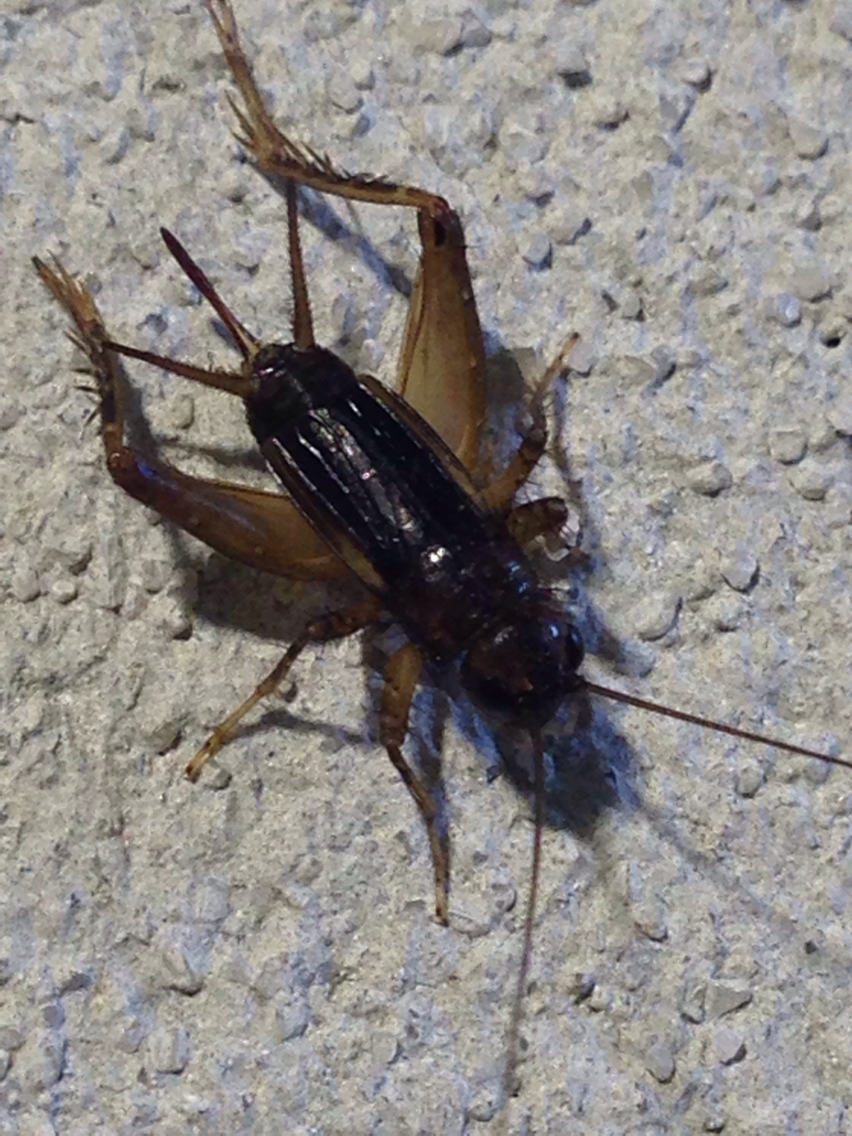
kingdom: Animalia
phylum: Arthropoda
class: Insecta
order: Orthoptera
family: Trigonidiidae
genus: Eunemobius
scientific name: Eunemobius carolinus
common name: Carolina ground cricket
